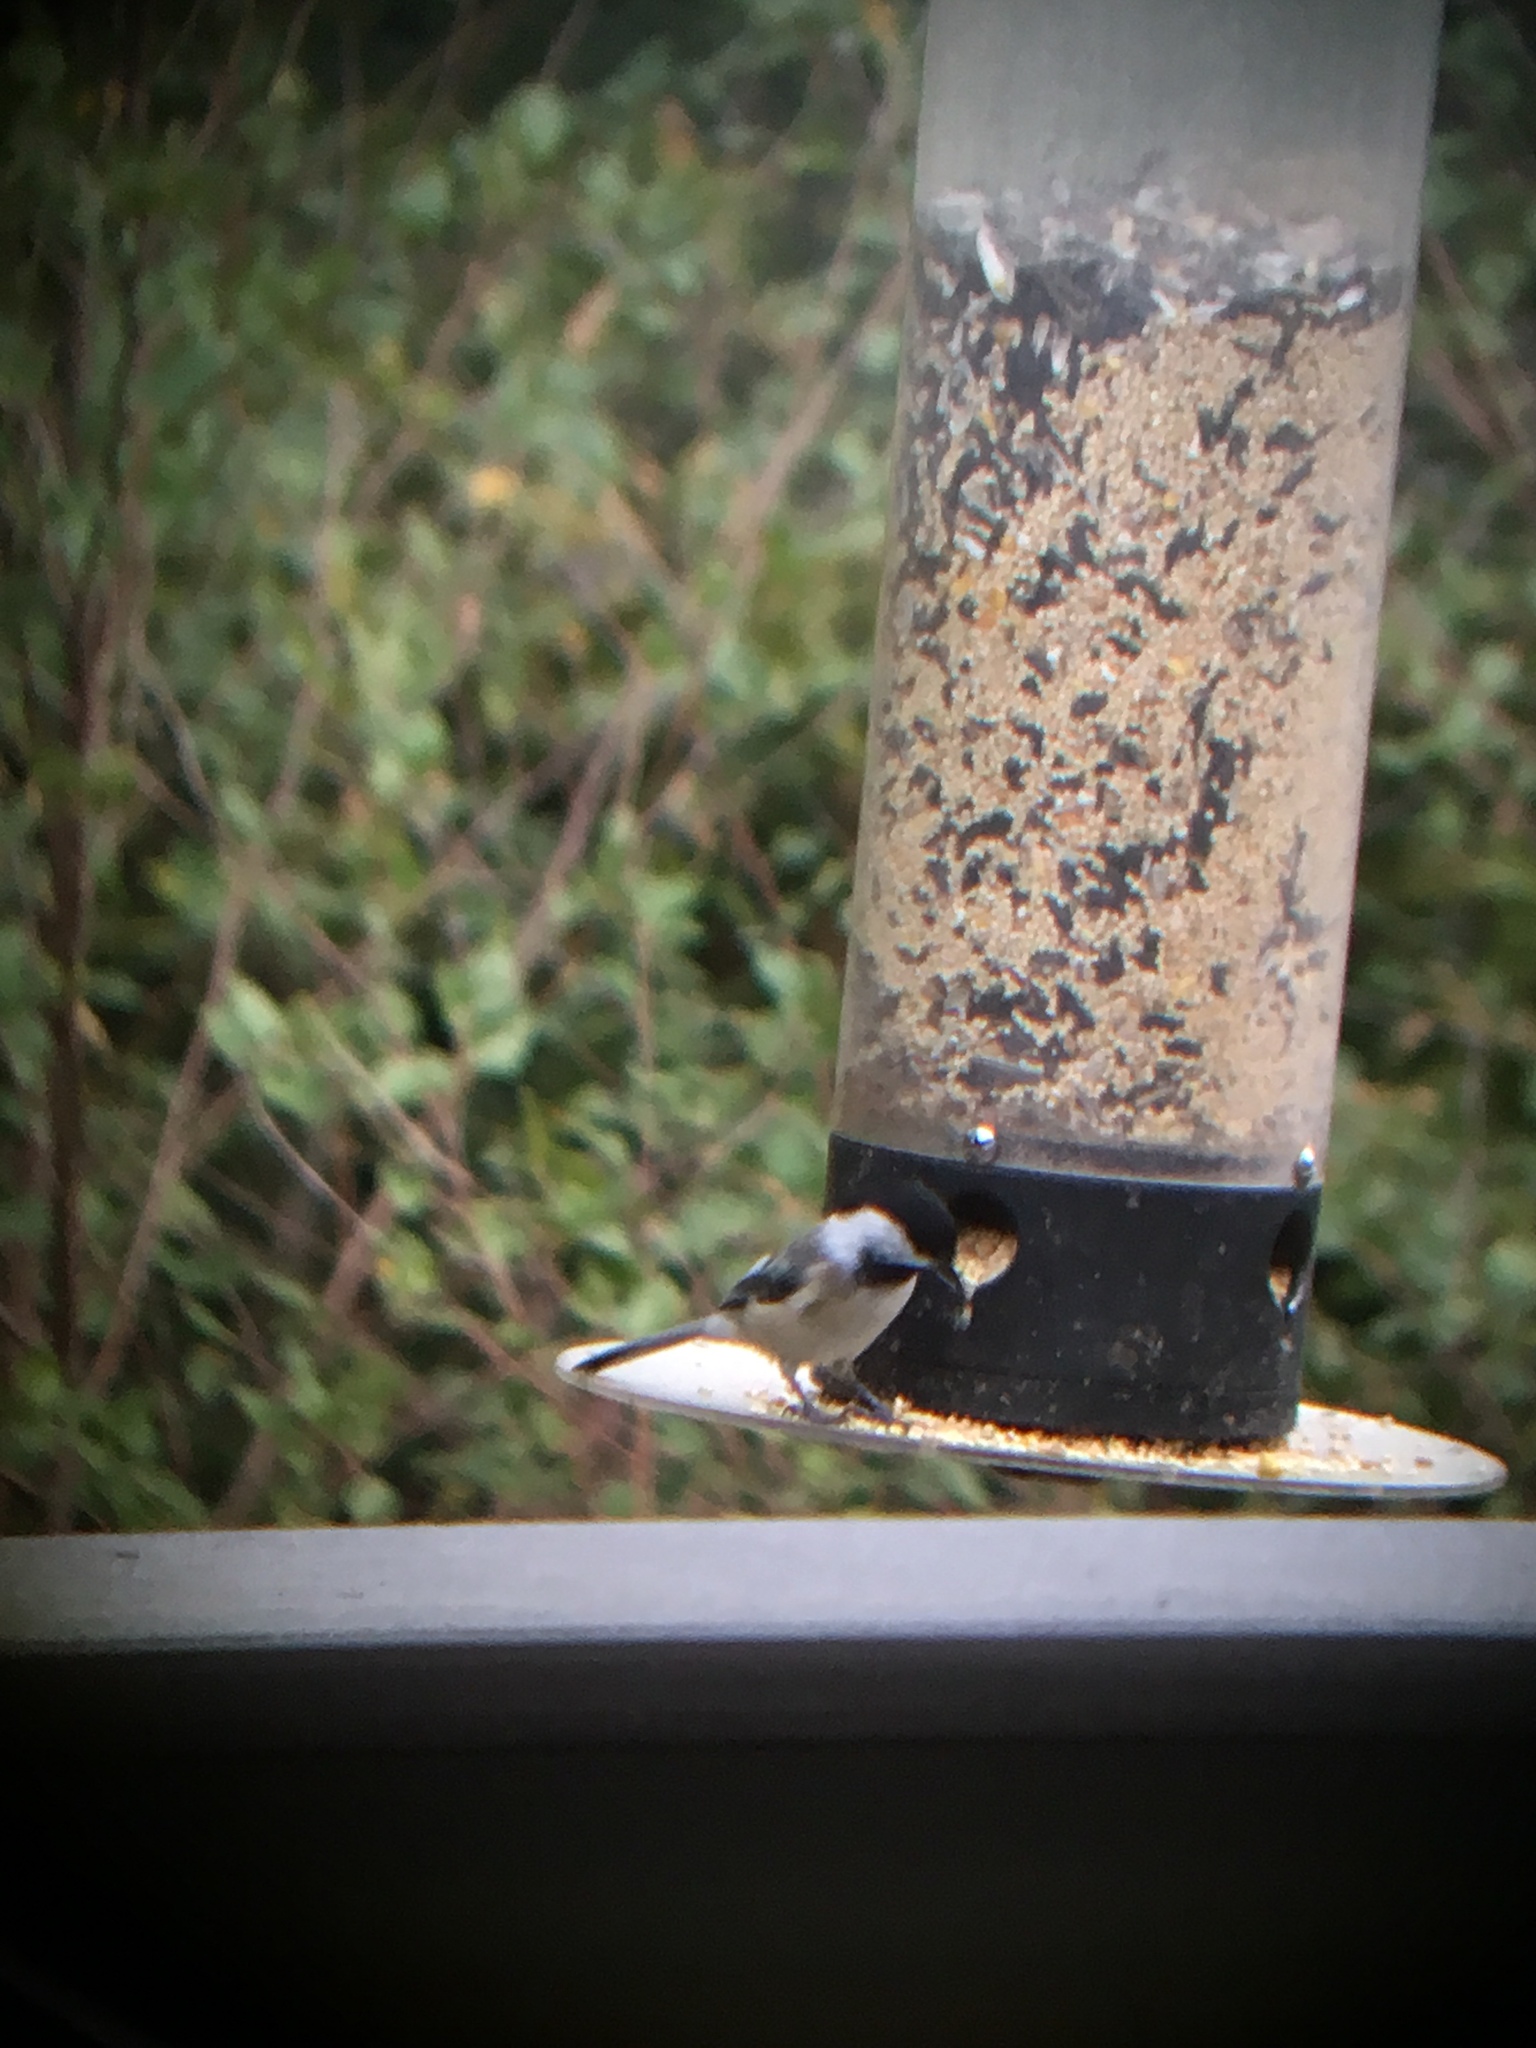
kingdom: Animalia
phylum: Chordata
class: Aves
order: Passeriformes
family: Paridae
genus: Poecile
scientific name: Poecile atricapillus
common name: Black-capped chickadee
